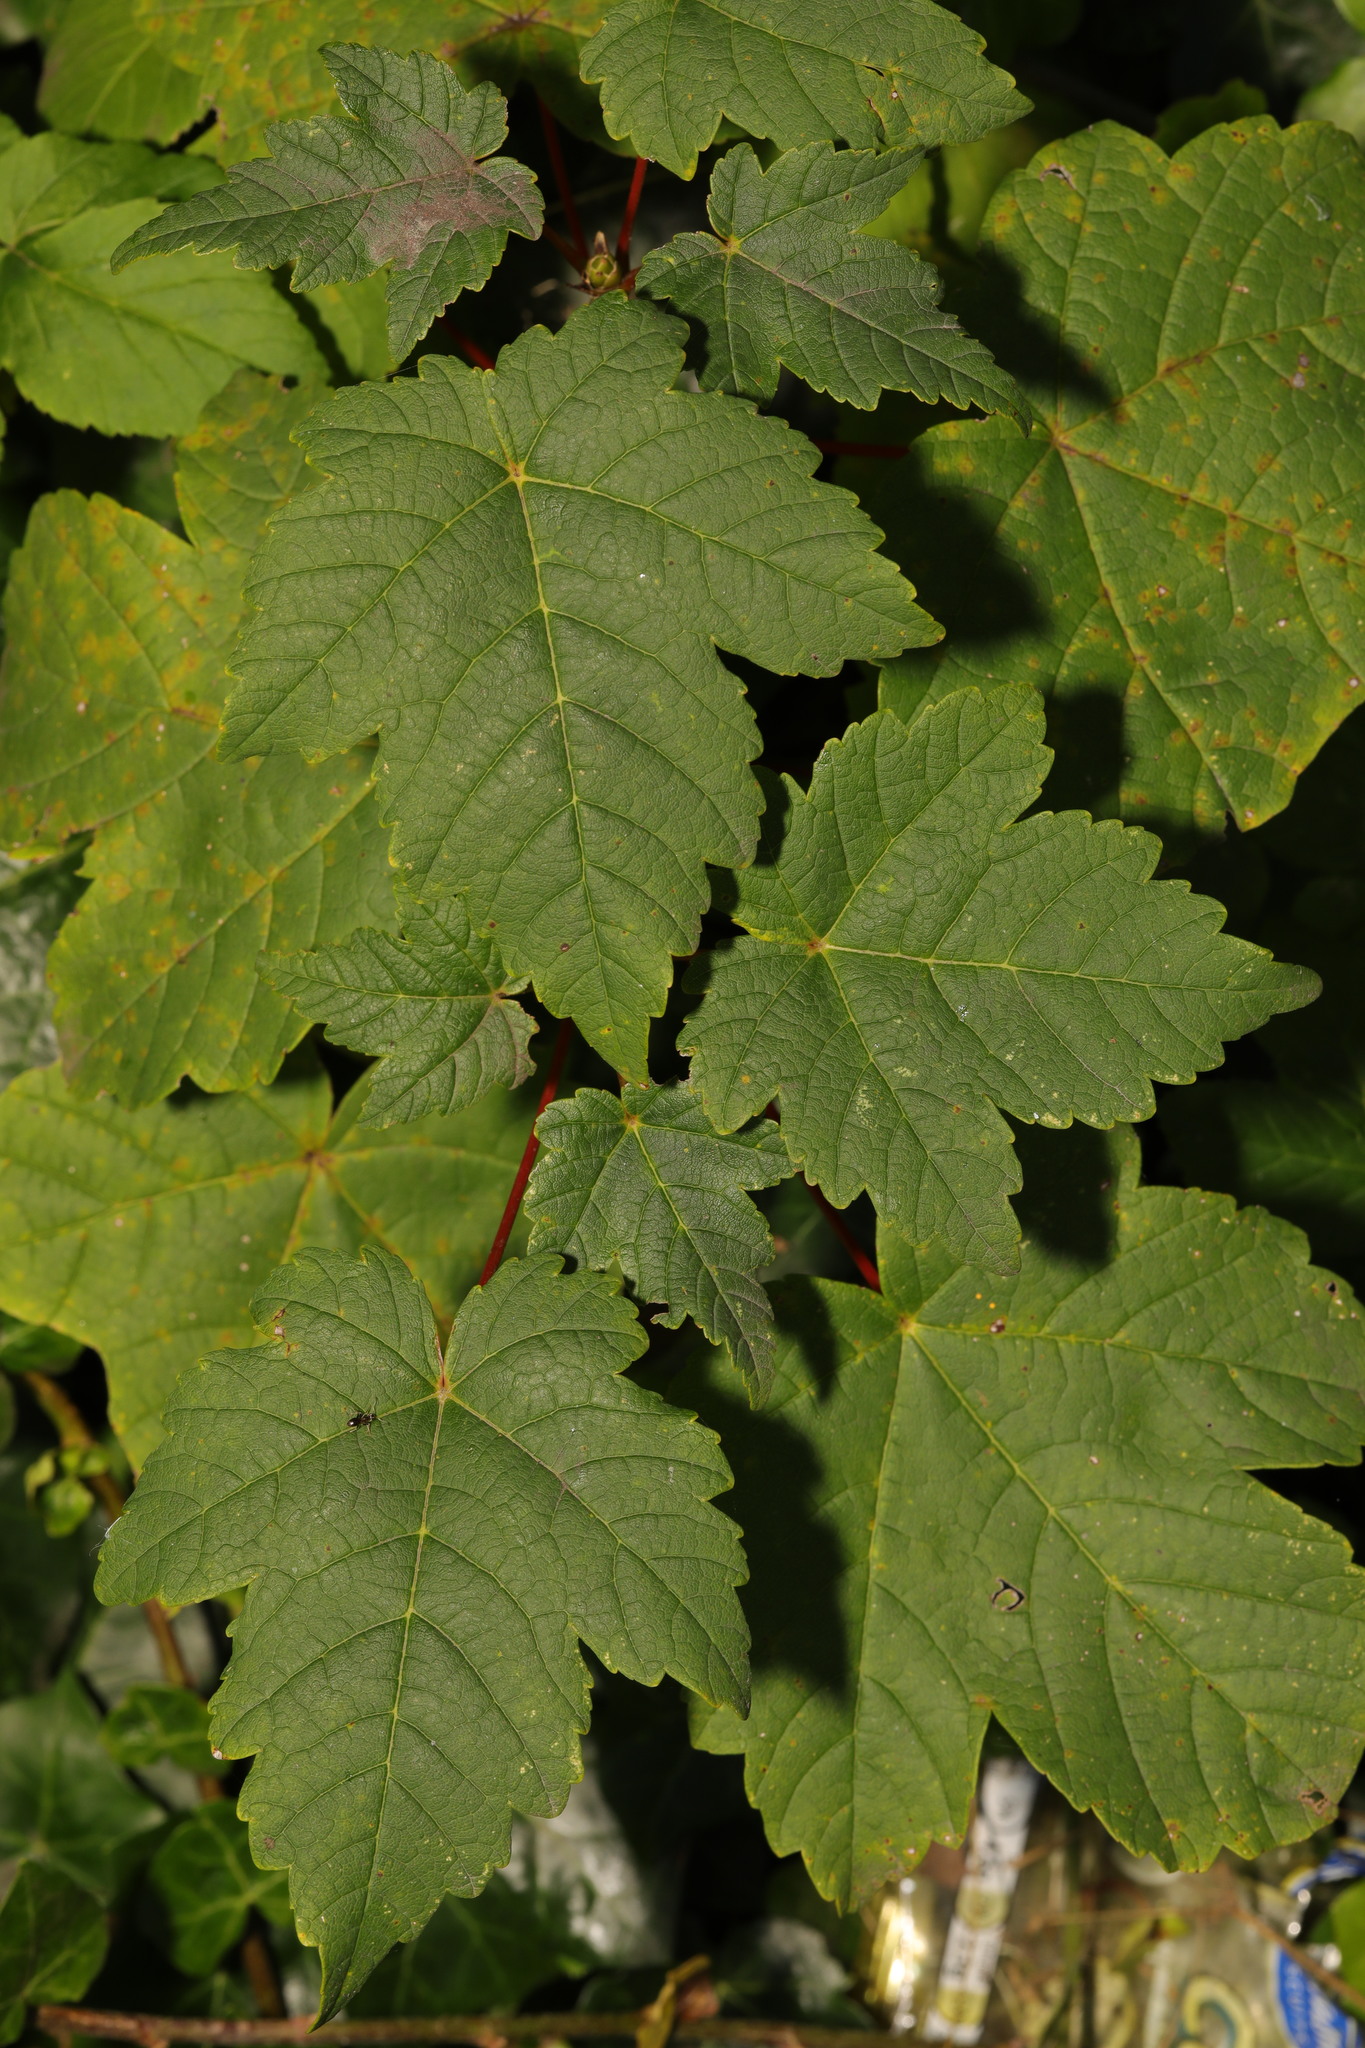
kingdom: Plantae
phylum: Tracheophyta
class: Magnoliopsida
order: Sapindales
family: Sapindaceae
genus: Acer
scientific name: Acer pseudoplatanus
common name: Sycamore
